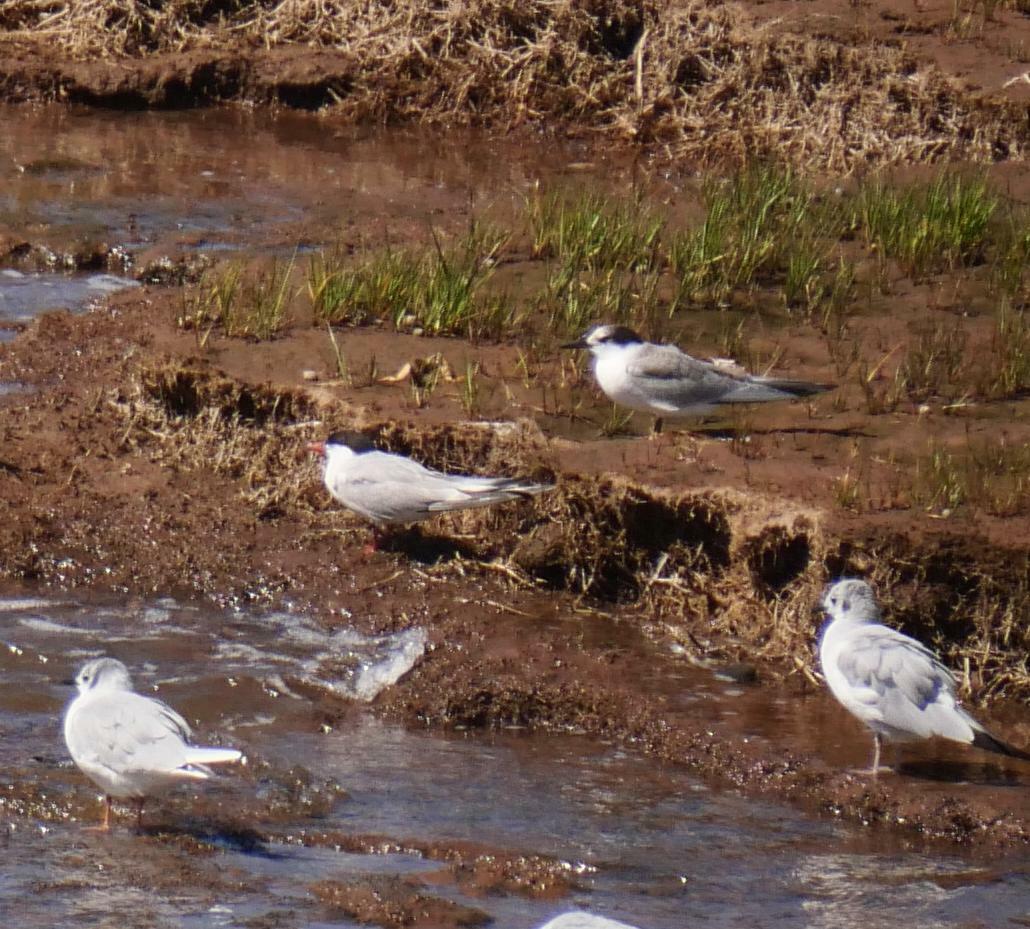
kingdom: Animalia
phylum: Chordata
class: Aves
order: Charadriiformes
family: Laridae
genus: Sterna
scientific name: Sterna hirundo
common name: Common tern
